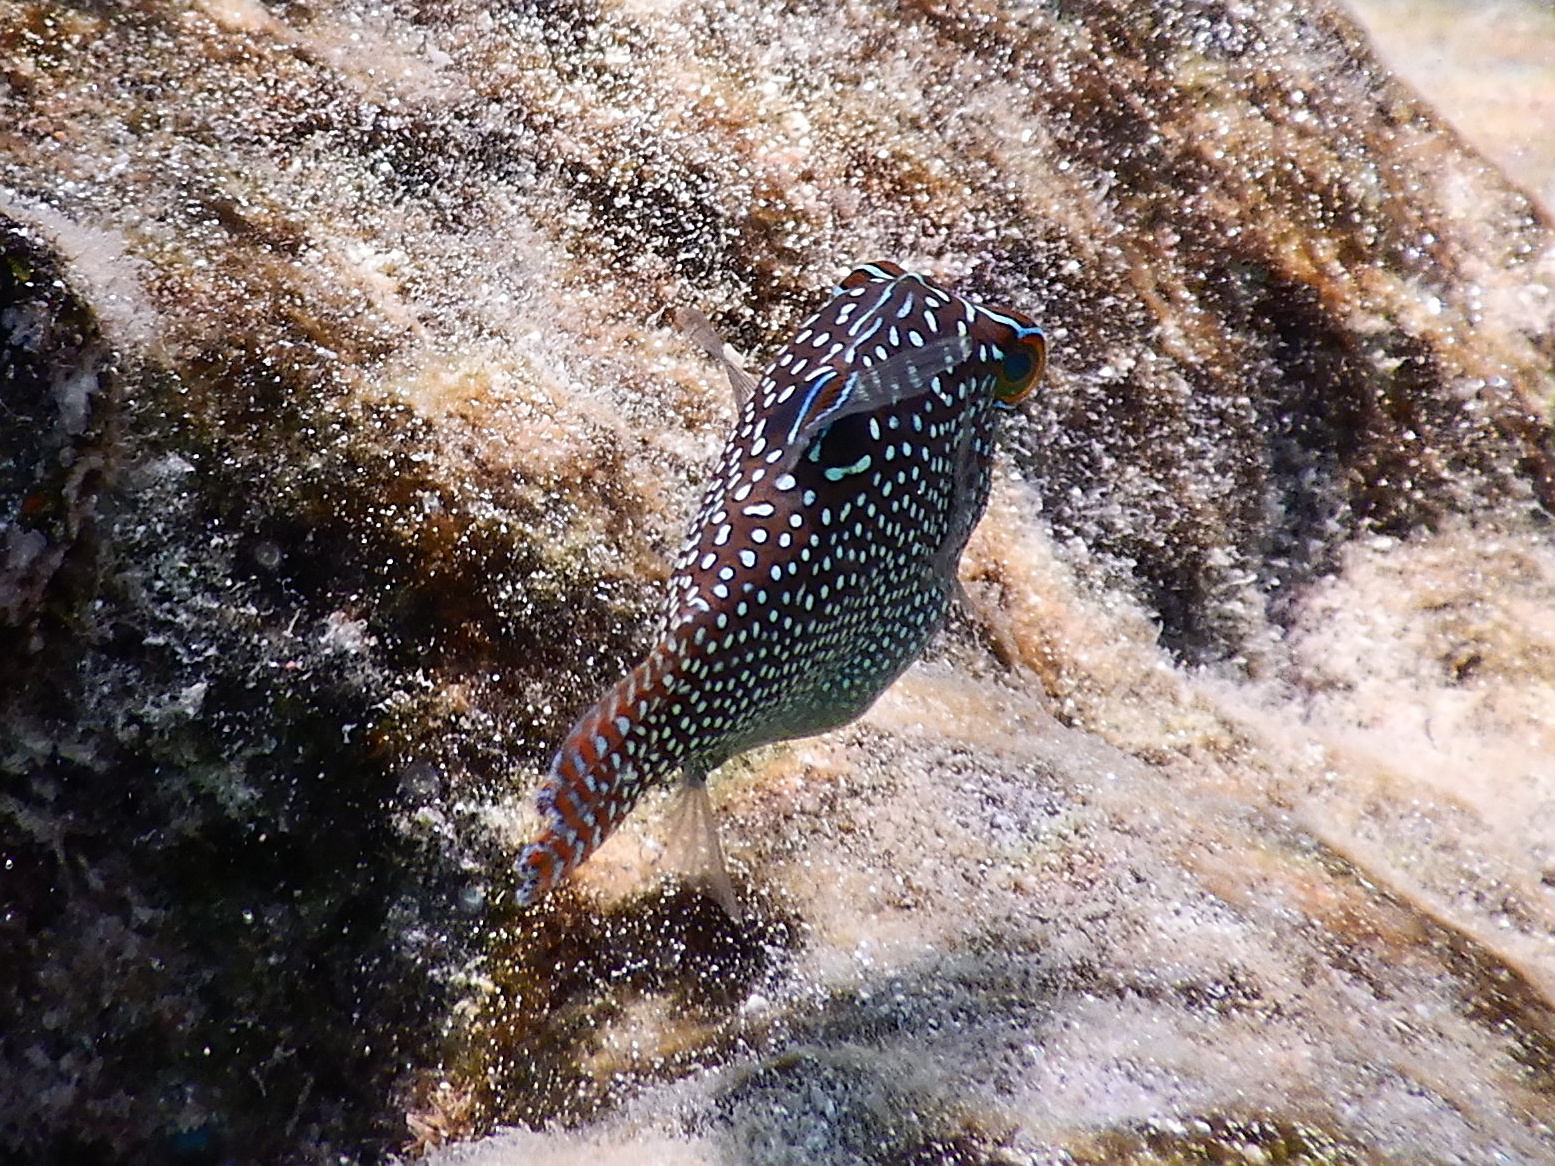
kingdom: Animalia
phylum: Chordata
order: Tetraodontiformes
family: Tetraodontidae
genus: Canthigaster
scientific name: Canthigaster solandri
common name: False-eye toby
